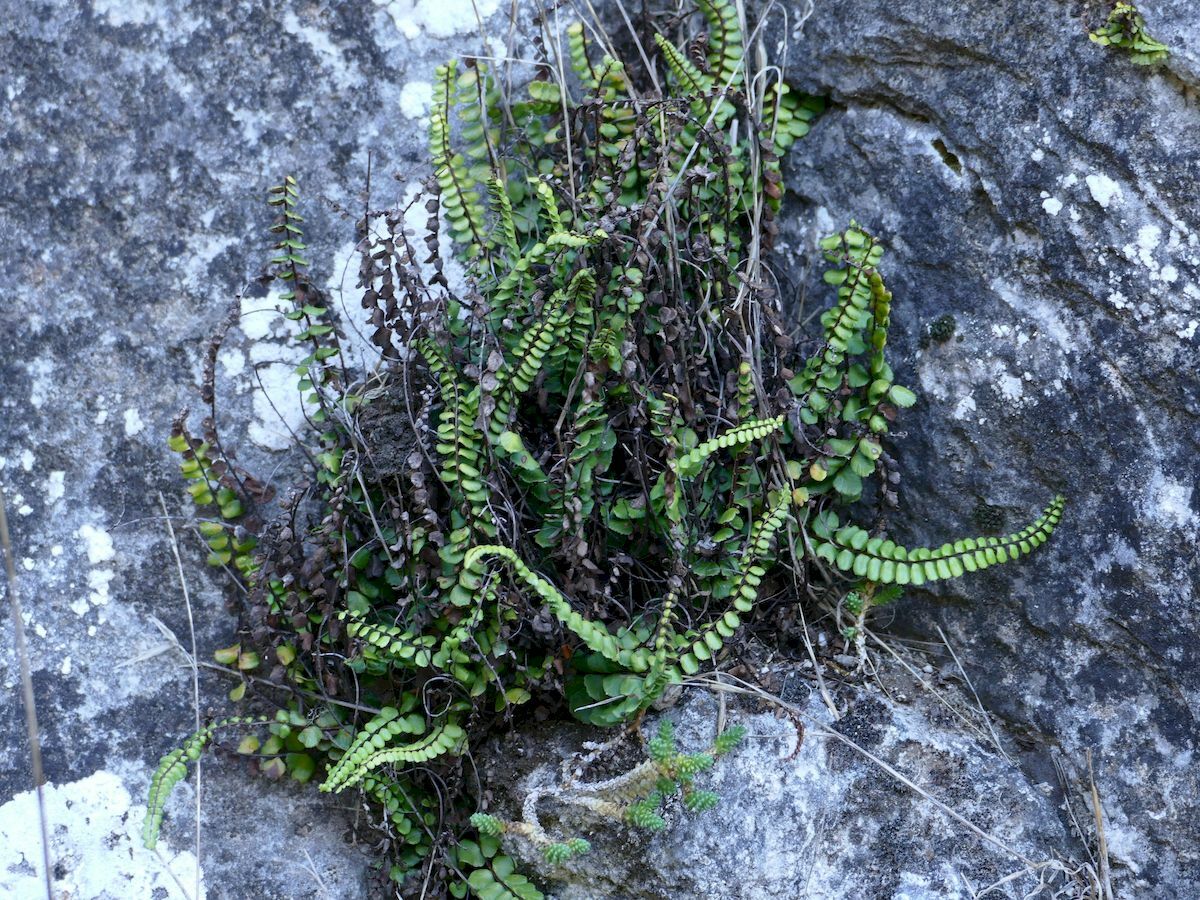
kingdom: Plantae
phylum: Tracheophyta
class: Polypodiopsida
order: Polypodiales
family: Lindsaeaceae
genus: Lindsaea
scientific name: Lindsaea linearis
